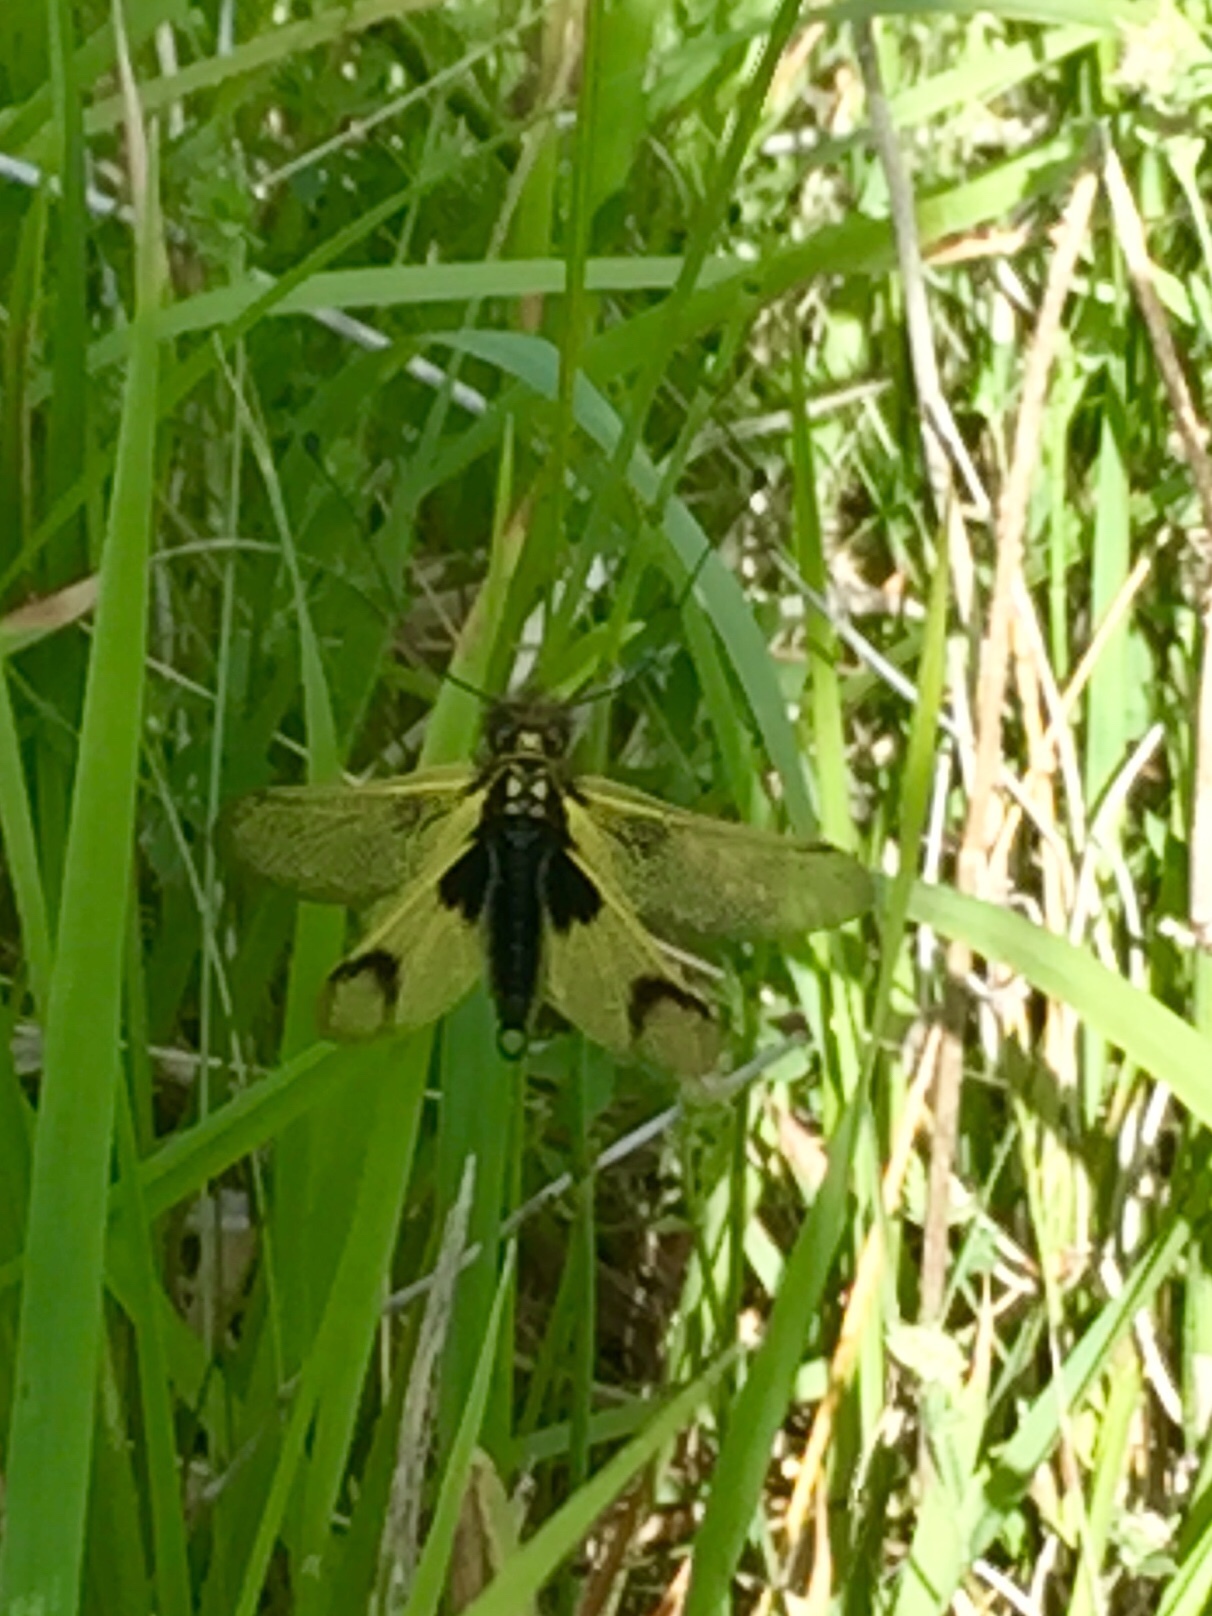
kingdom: Animalia
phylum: Arthropoda
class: Insecta
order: Neuroptera
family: Ascalaphidae
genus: Libelloides
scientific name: Libelloides longicornis
